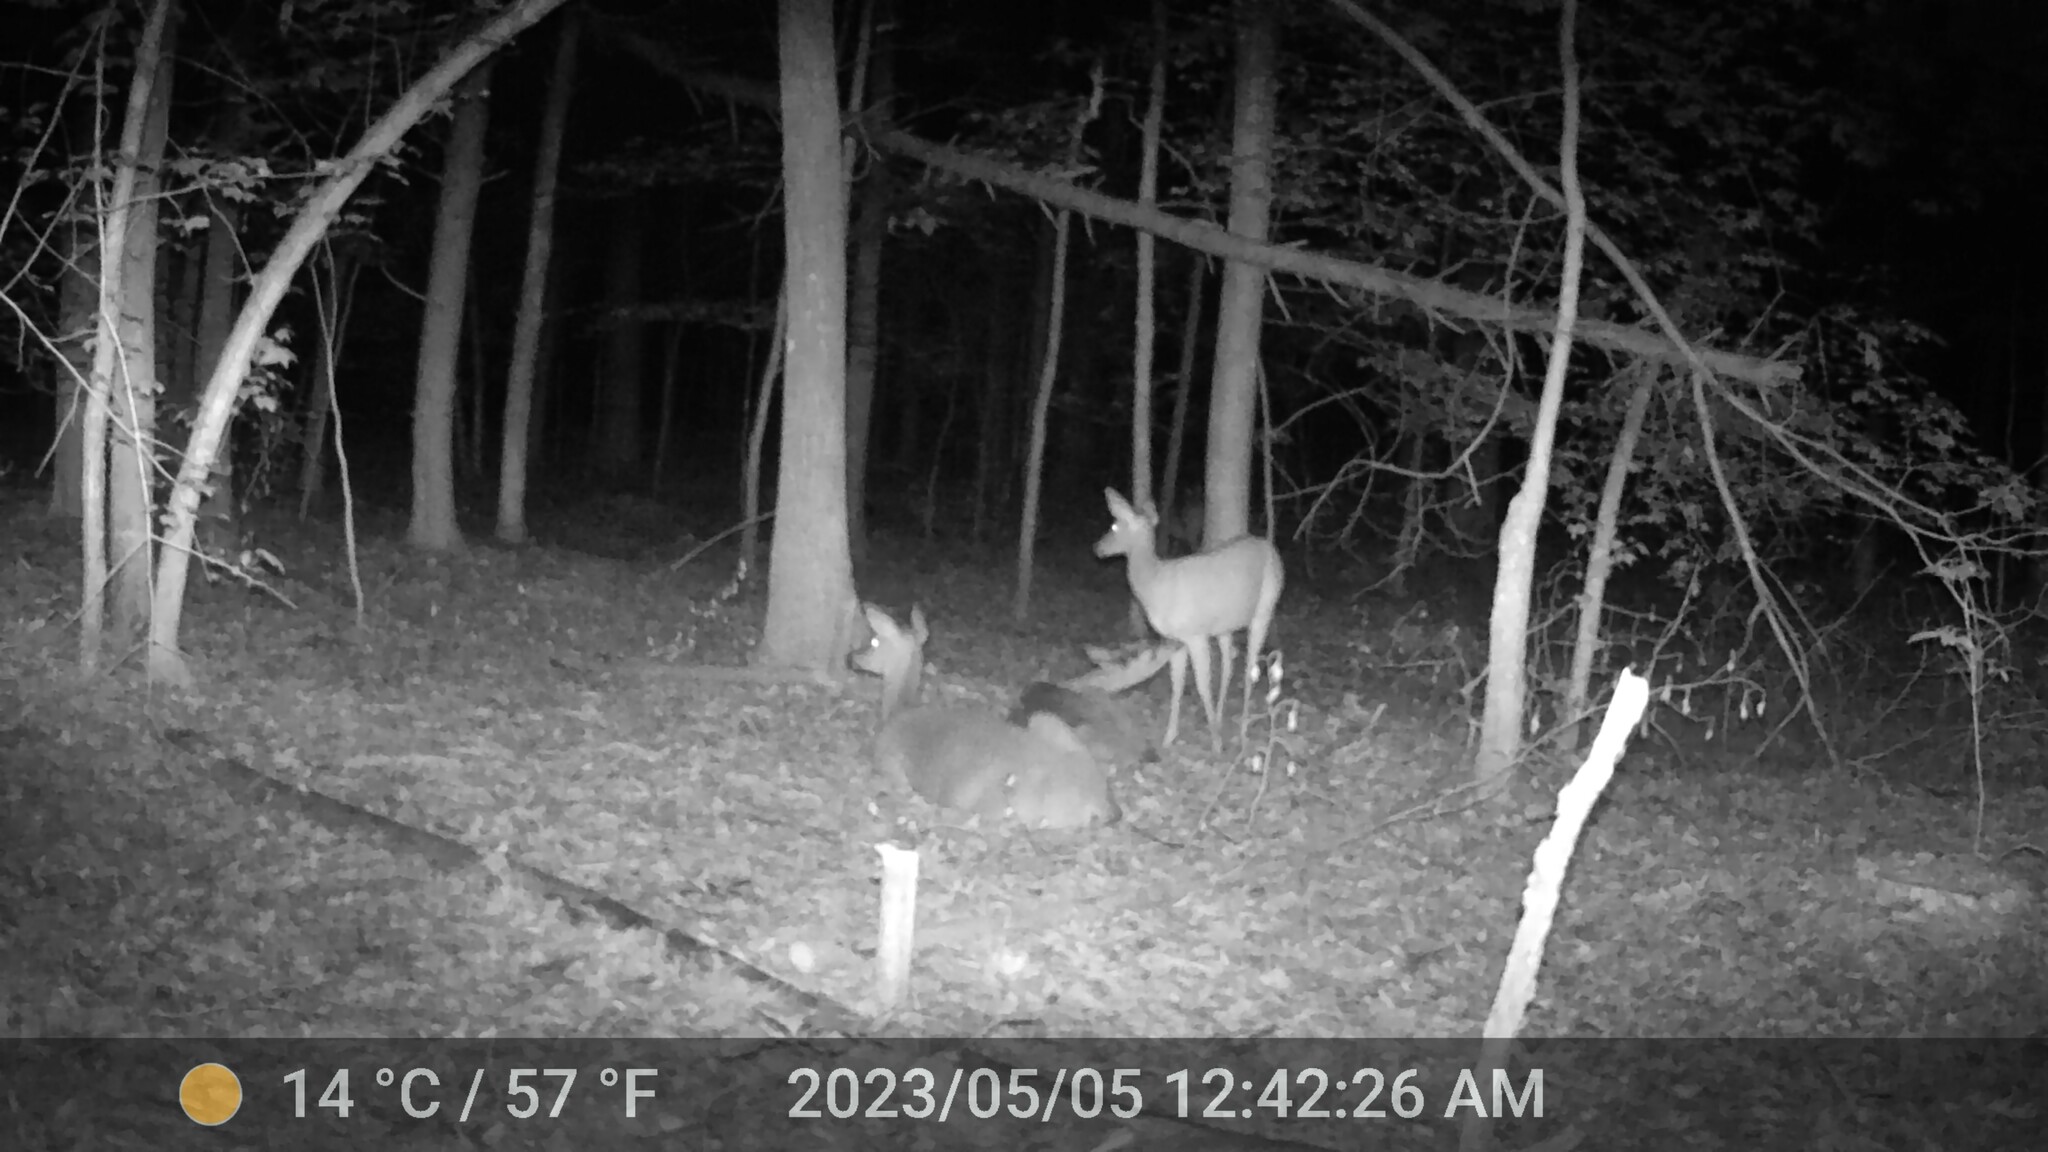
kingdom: Animalia
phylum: Chordata
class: Mammalia
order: Artiodactyla
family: Cervidae
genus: Odocoileus
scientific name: Odocoileus virginianus
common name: White-tailed deer
